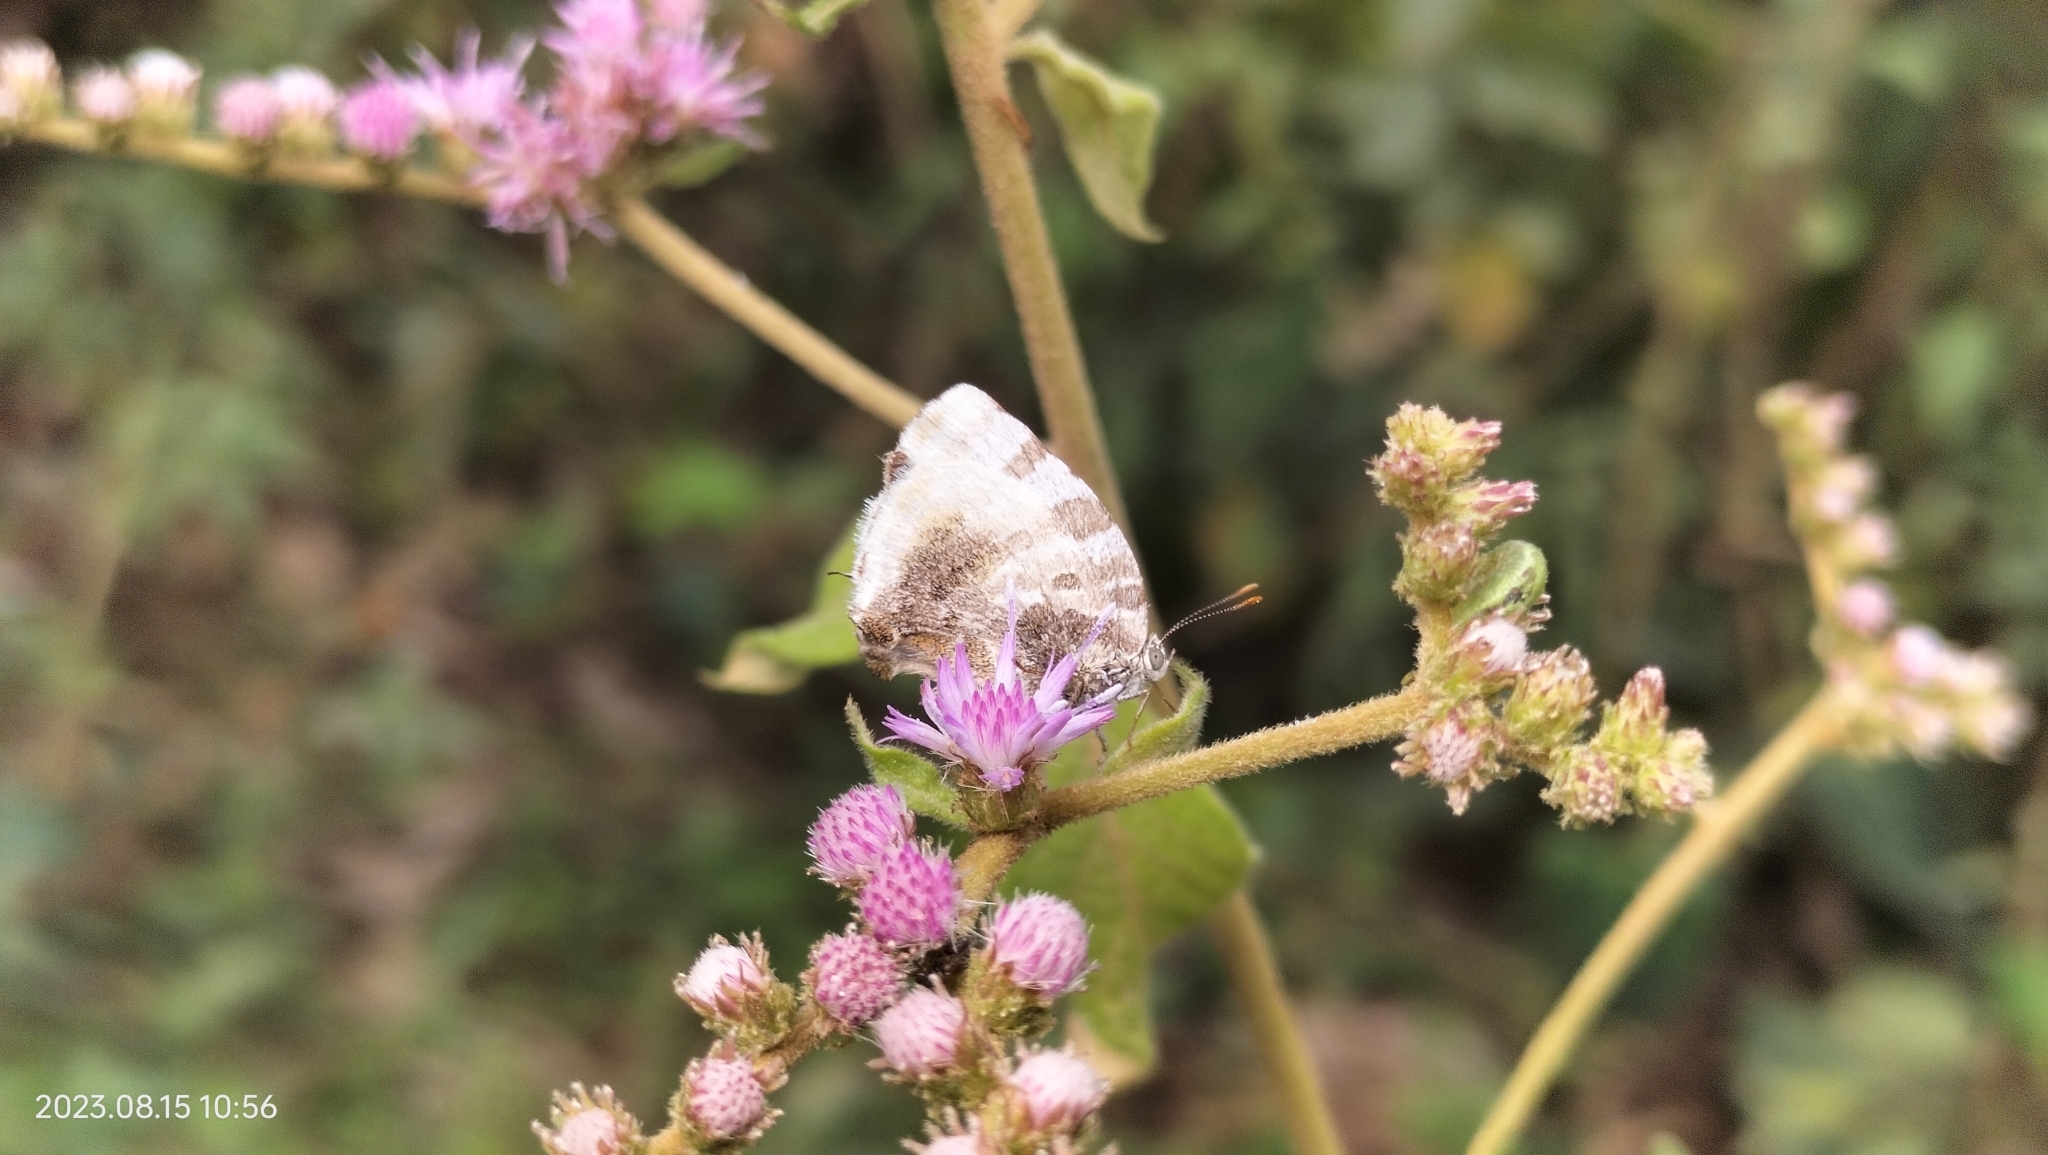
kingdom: Animalia
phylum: Arthropoda
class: Insecta
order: Lepidoptera
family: Lycaenidae
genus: Thecla
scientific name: Thecla dolylas
